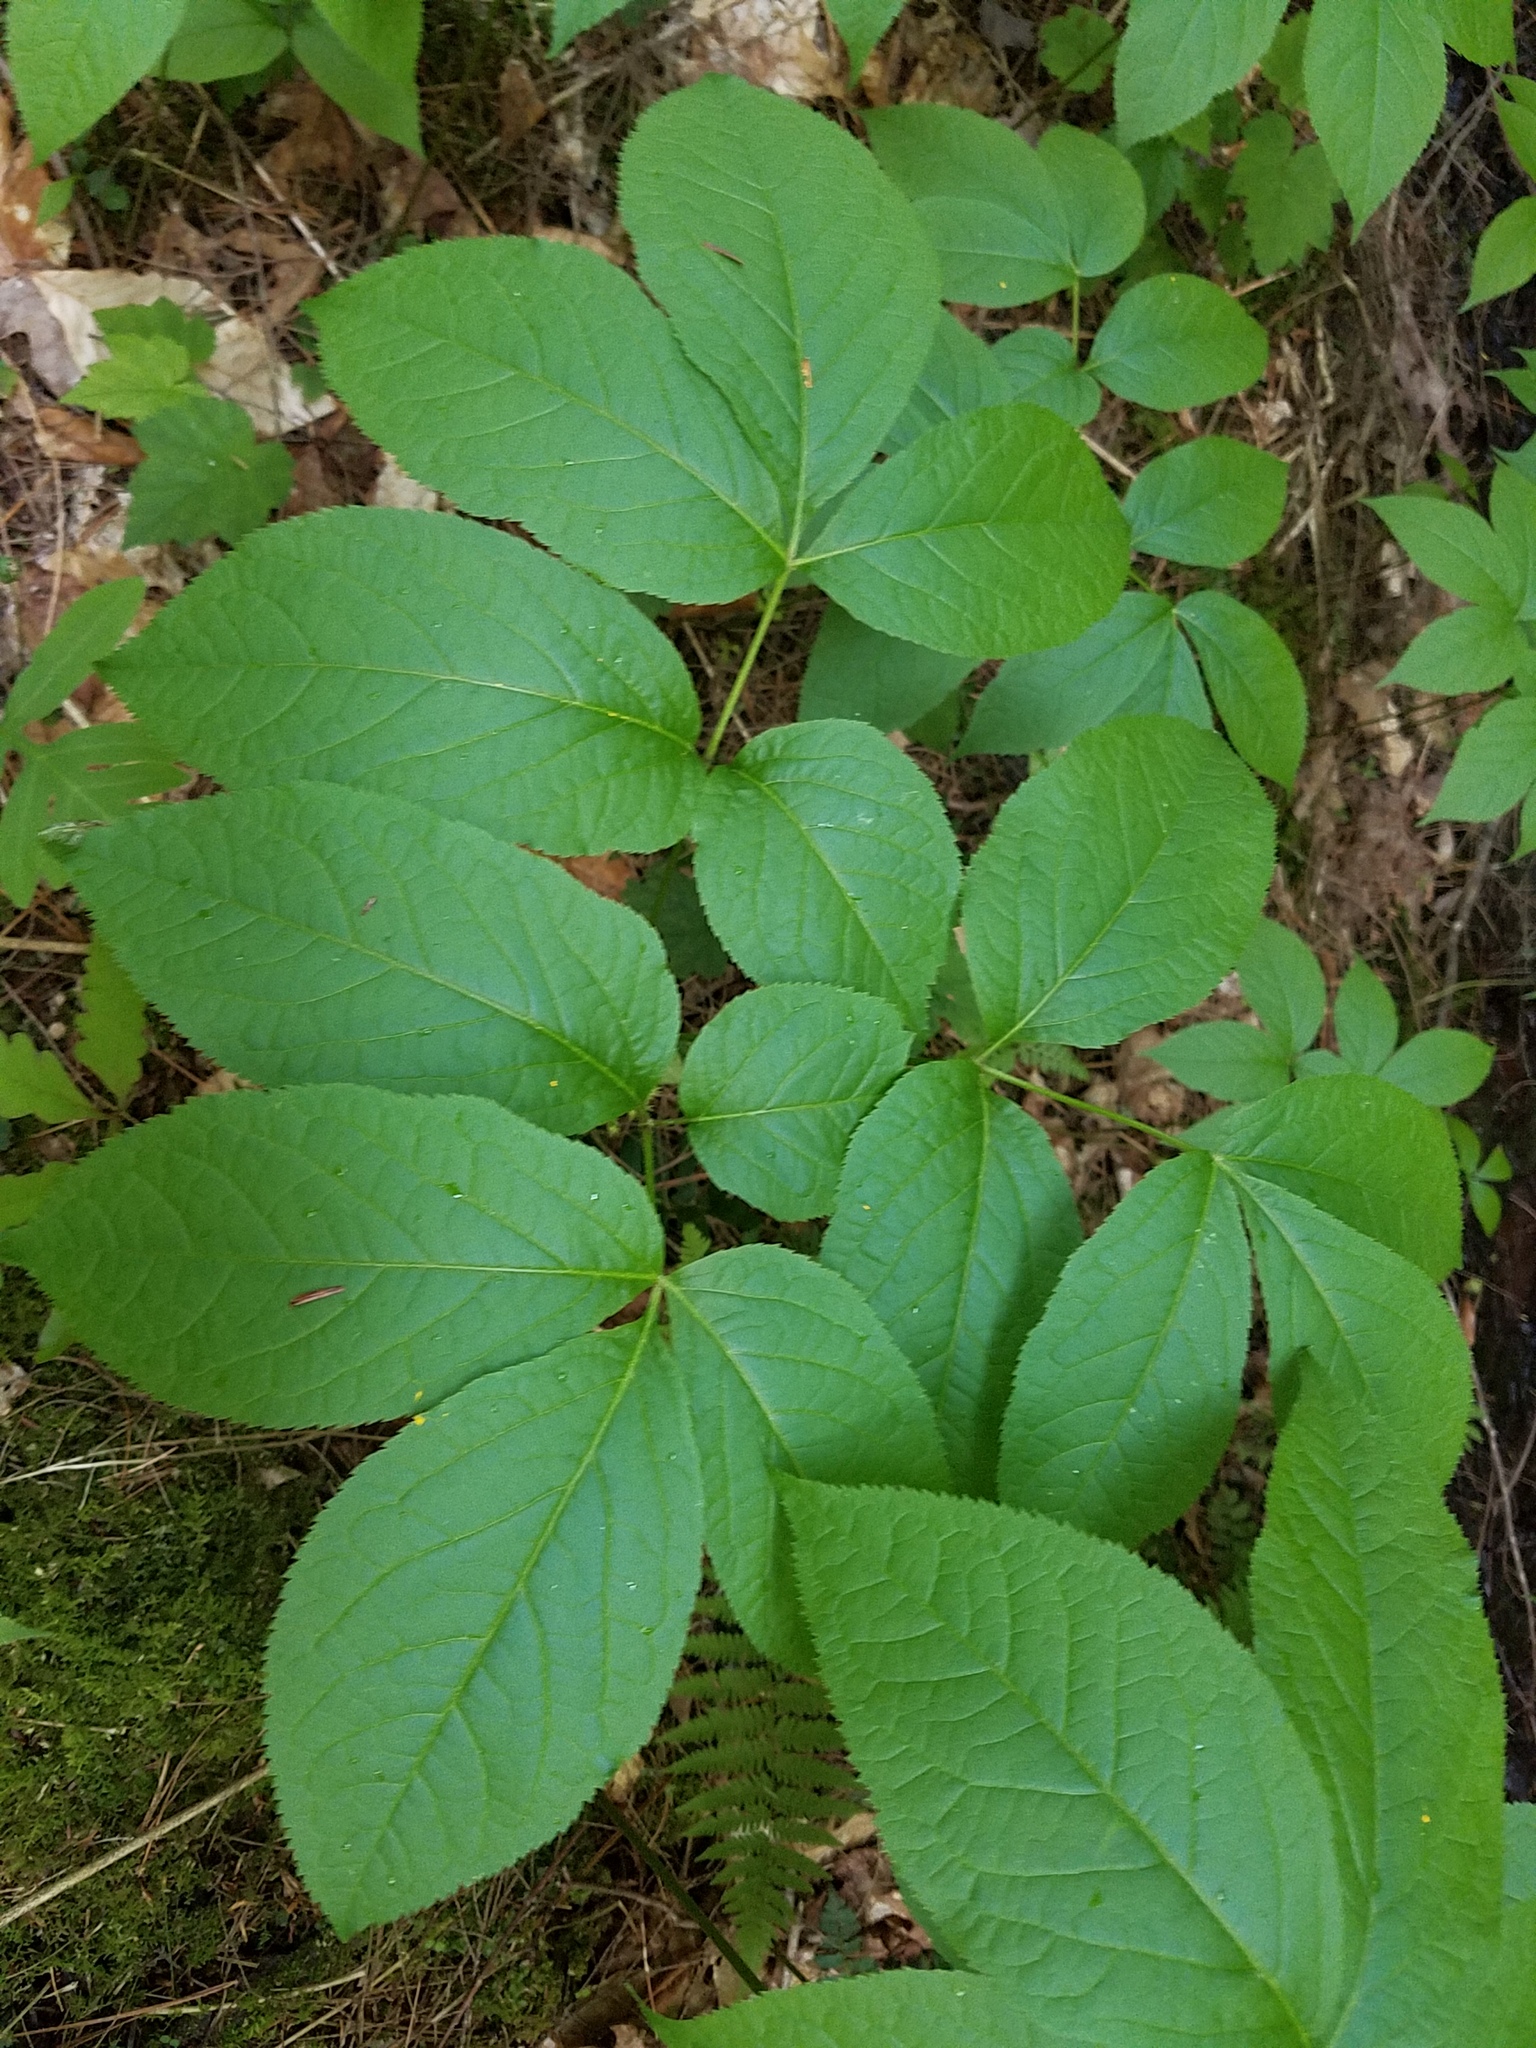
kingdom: Plantae
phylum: Tracheophyta
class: Magnoliopsida
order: Apiales
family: Araliaceae
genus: Aralia
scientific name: Aralia nudicaulis
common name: Wild sarsaparilla
